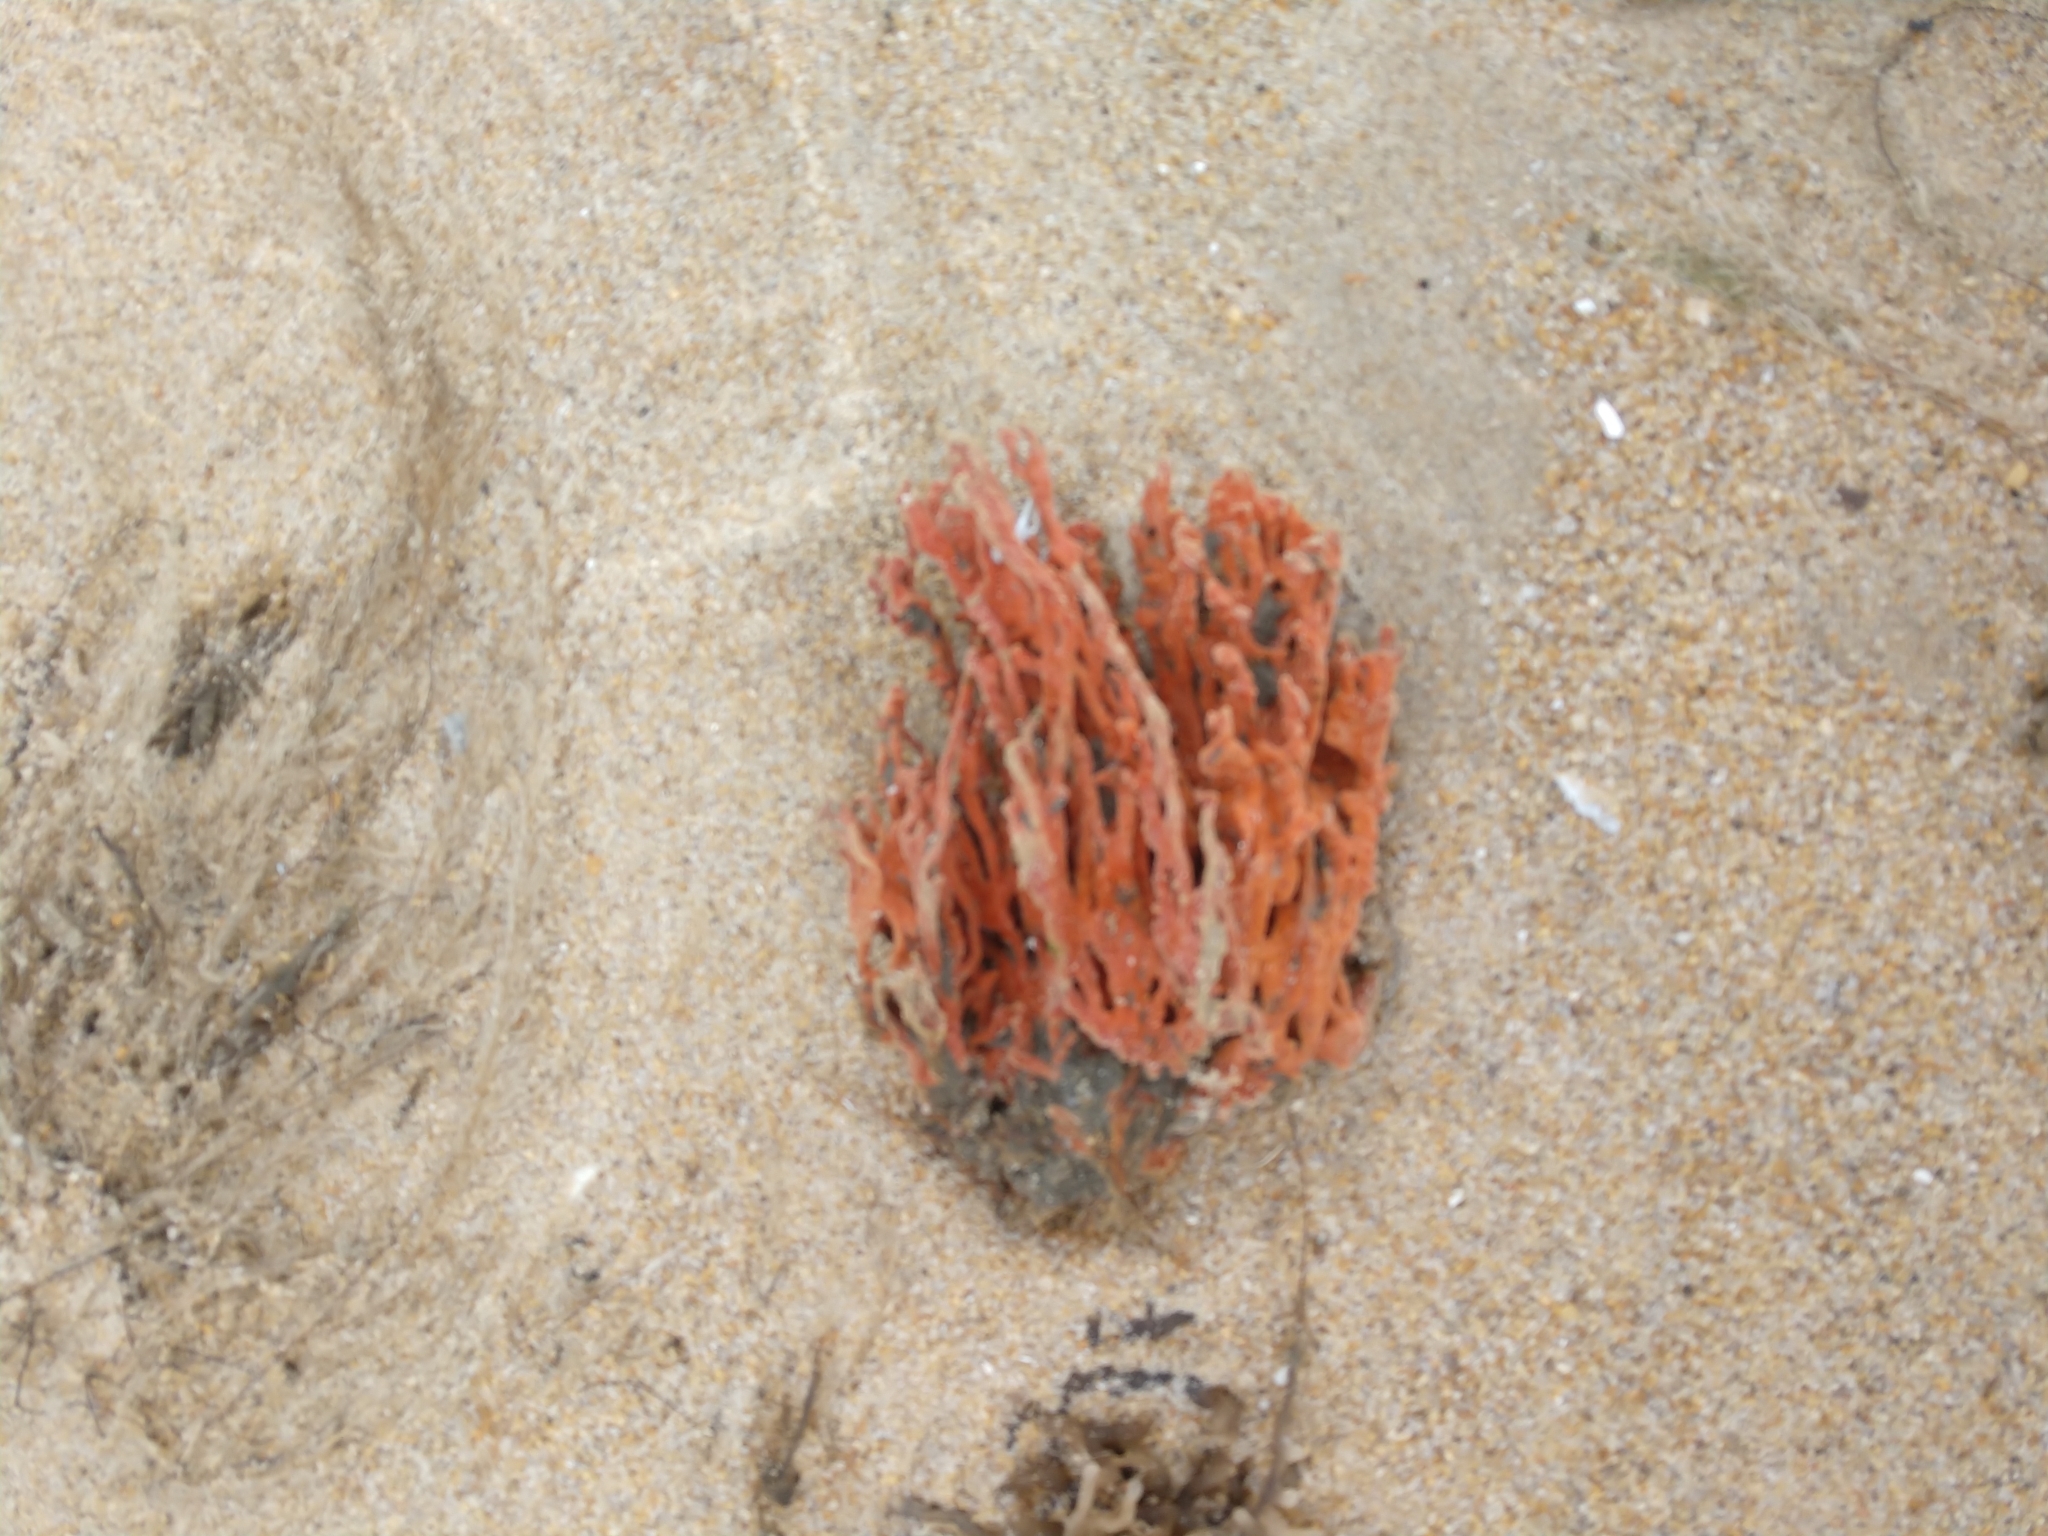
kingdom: Animalia
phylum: Porifera
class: Demospongiae
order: Poecilosclerida
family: Microcionidae
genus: Clathria
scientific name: Clathria prolifera
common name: Red beard sponge
